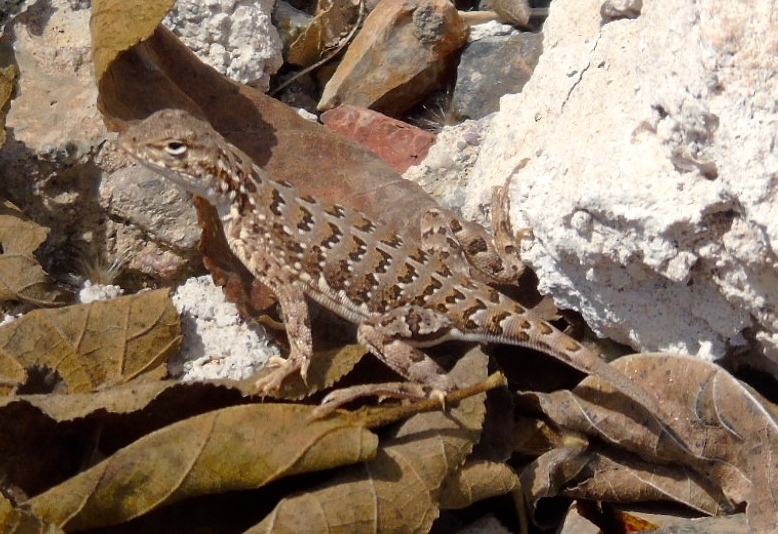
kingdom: Animalia
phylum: Chordata
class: Squamata
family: Phrynosomatidae
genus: Holbrookia
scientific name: Holbrookia elegans
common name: Elegant earless lizard
